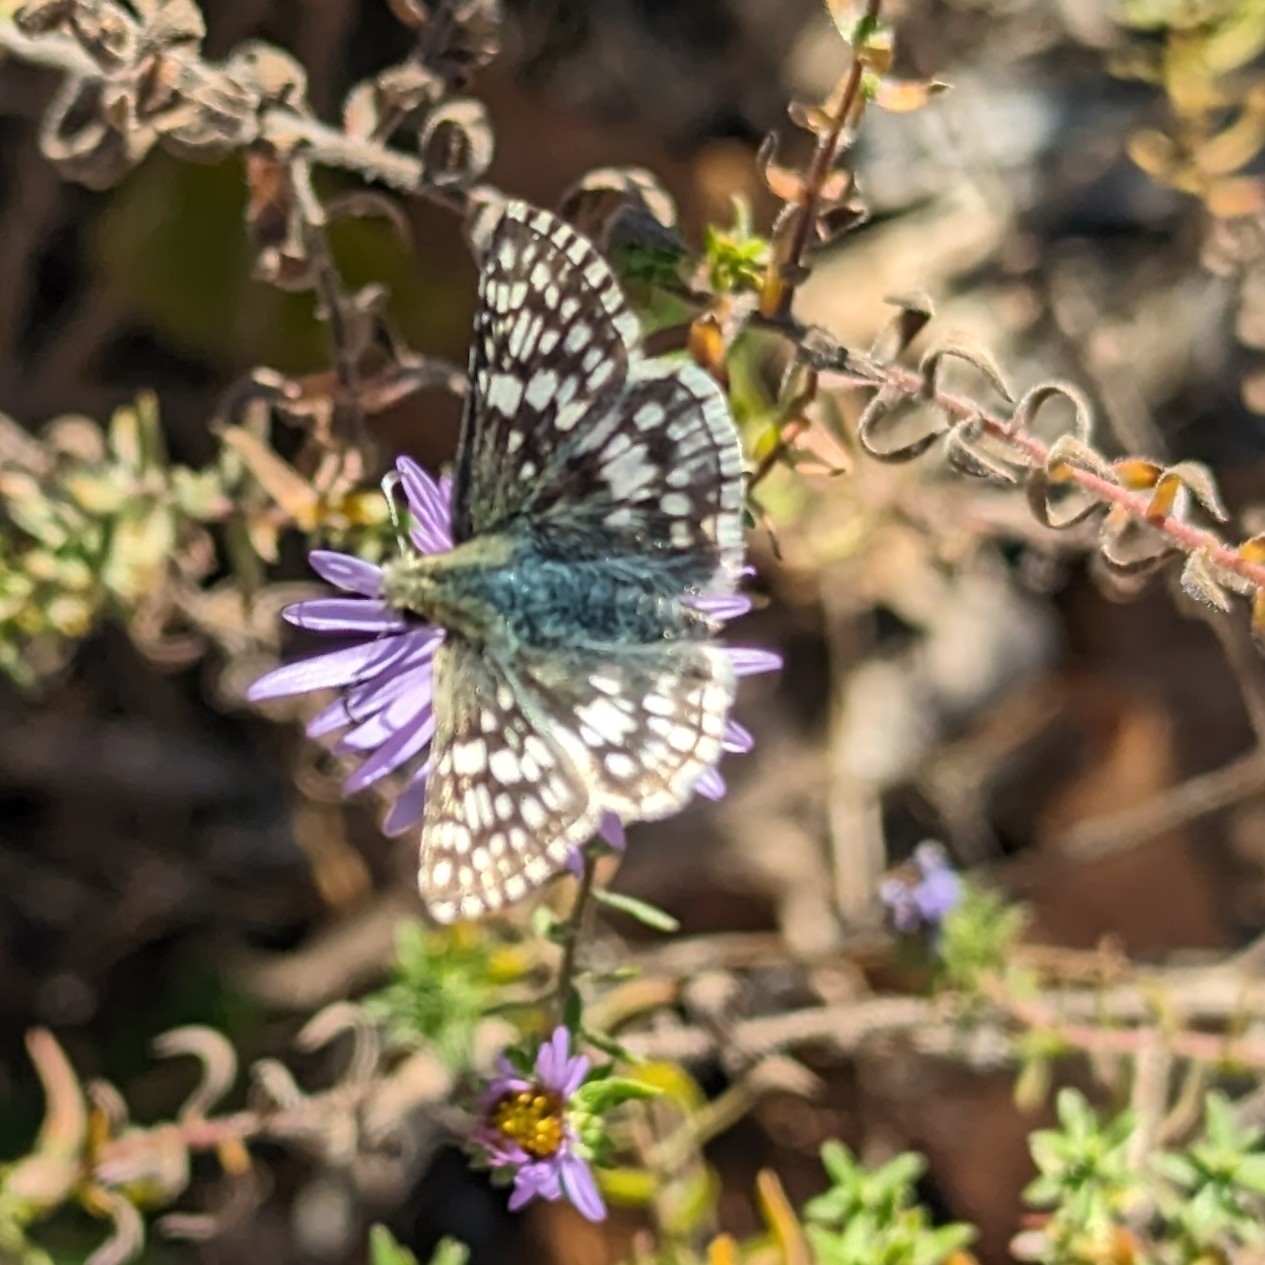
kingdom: Animalia
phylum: Arthropoda
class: Insecta
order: Lepidoptera
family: Hesperiidae
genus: Burnsius
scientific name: Burnsius communis
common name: Common checkered-skipper
